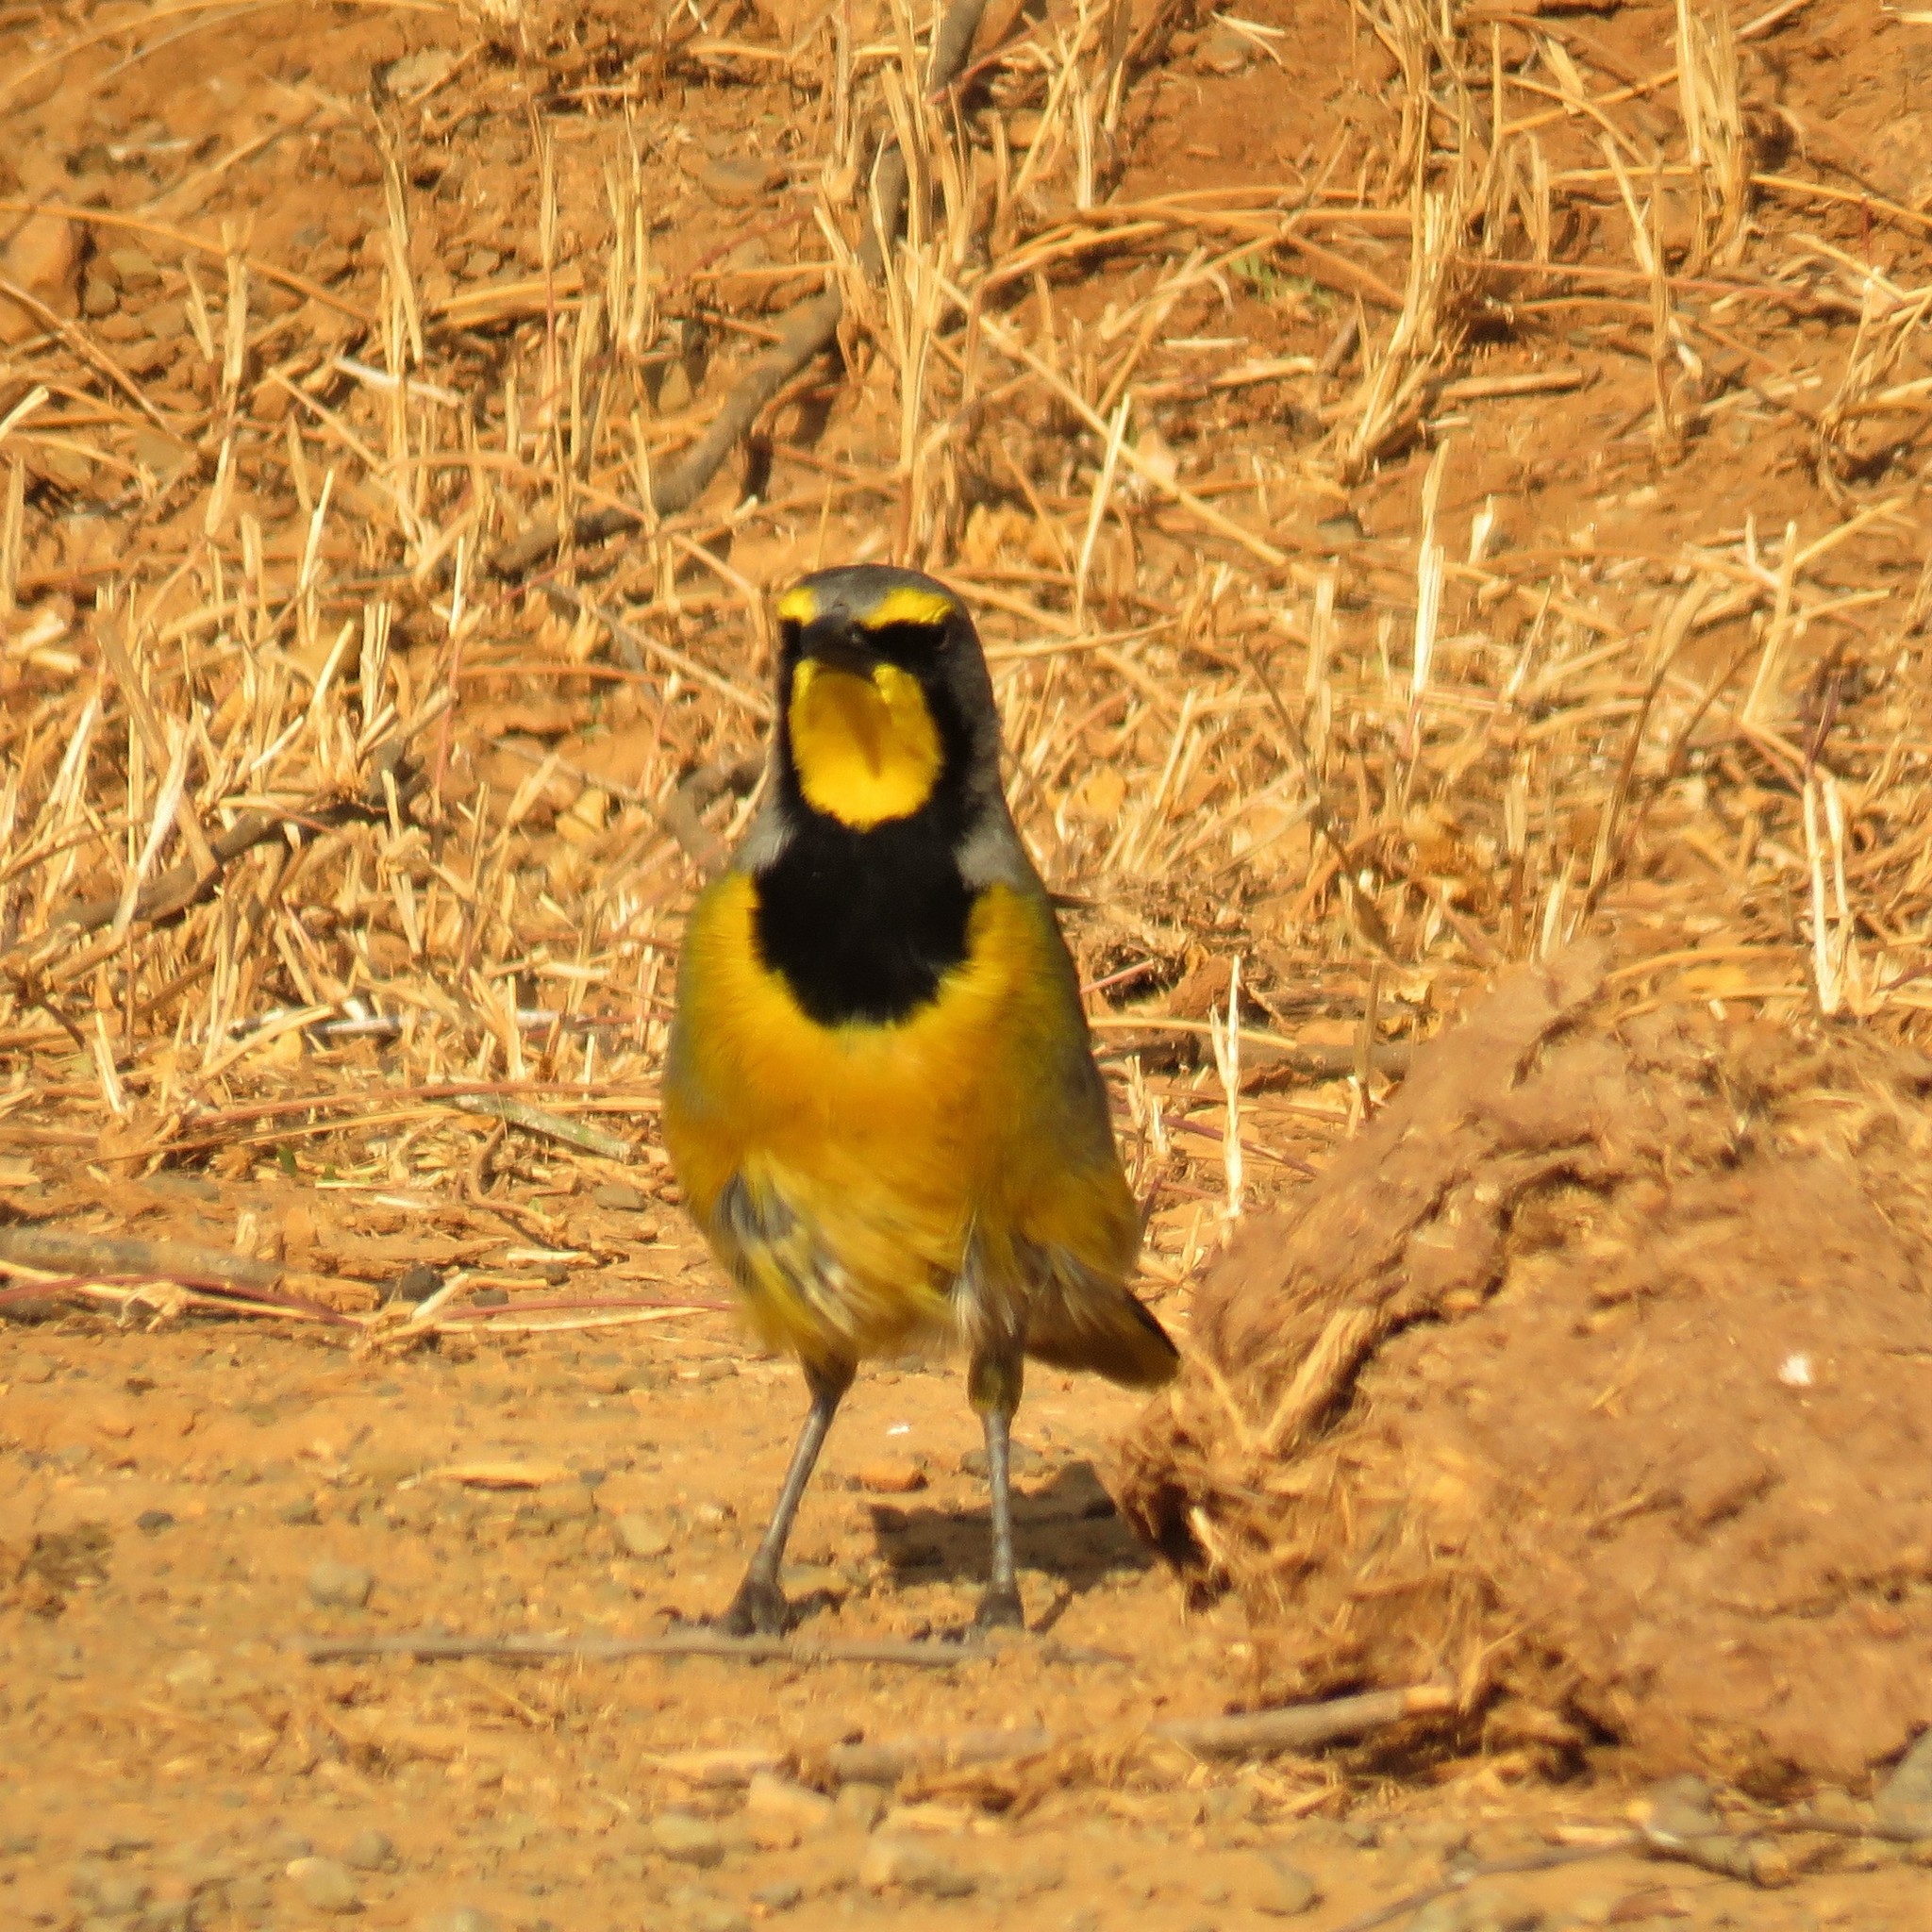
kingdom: Animalia
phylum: Chordata
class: Aves
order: Passeriformes
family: Malaconotidae
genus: Telophorus
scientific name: Telophorus zeylonus
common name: Bokmakierie
